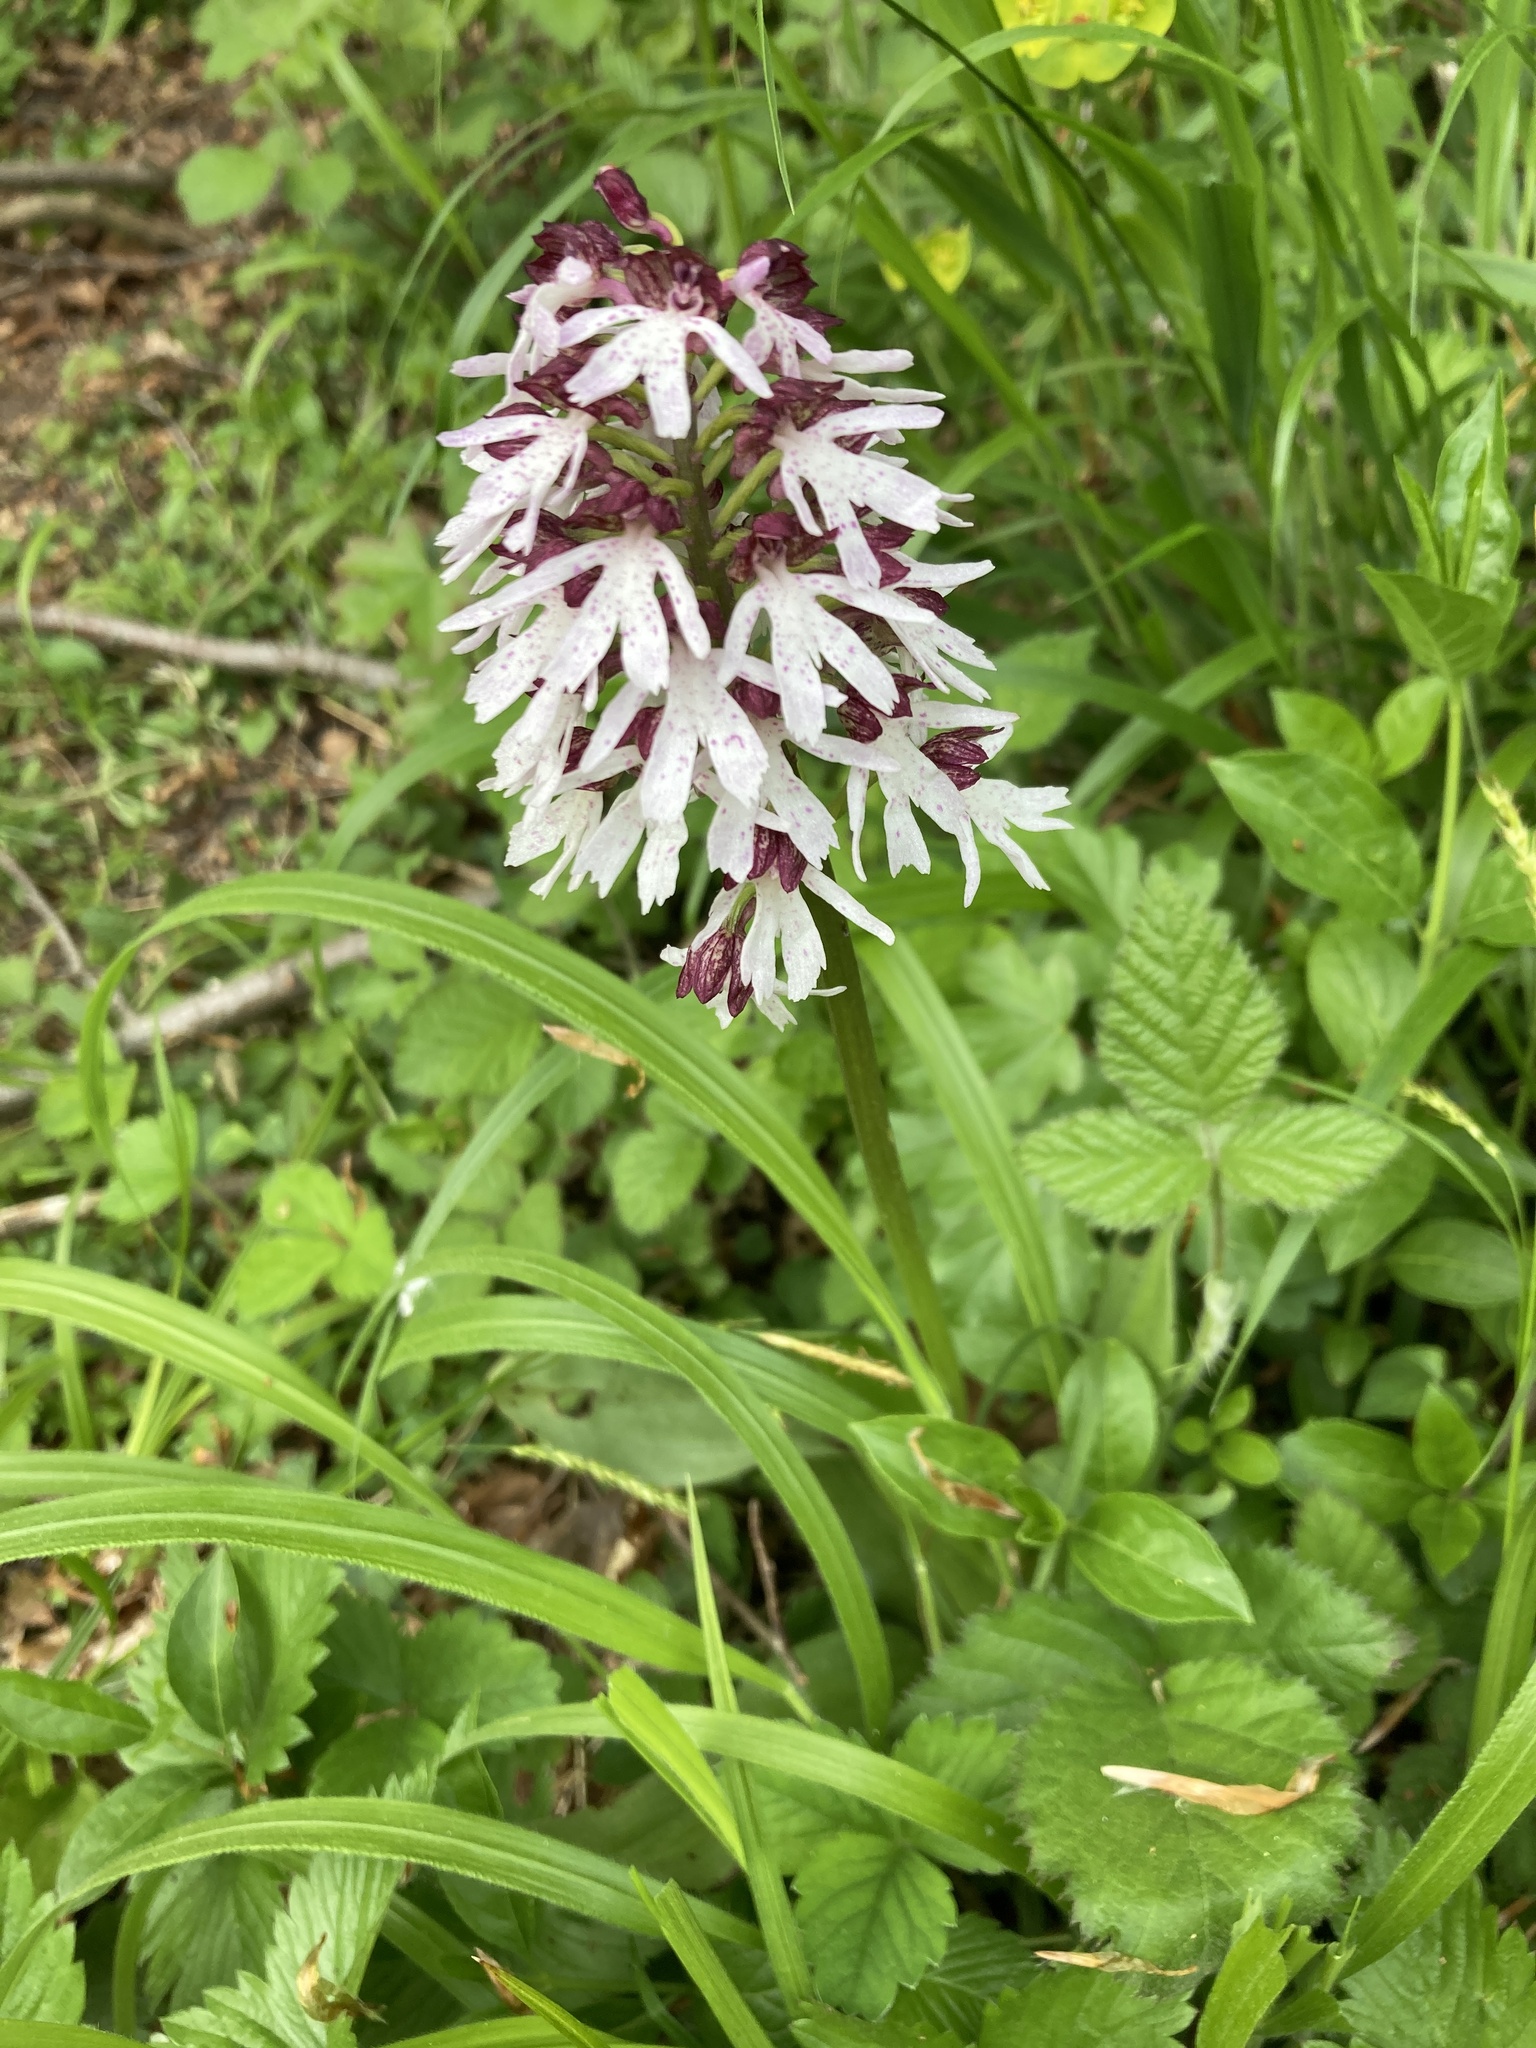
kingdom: Plantae
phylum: Tracheophyta
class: Liliopsida
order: Asparagales
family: Orchidaceae
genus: Orchis
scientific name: Orchis purpurea
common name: Lady orchid
